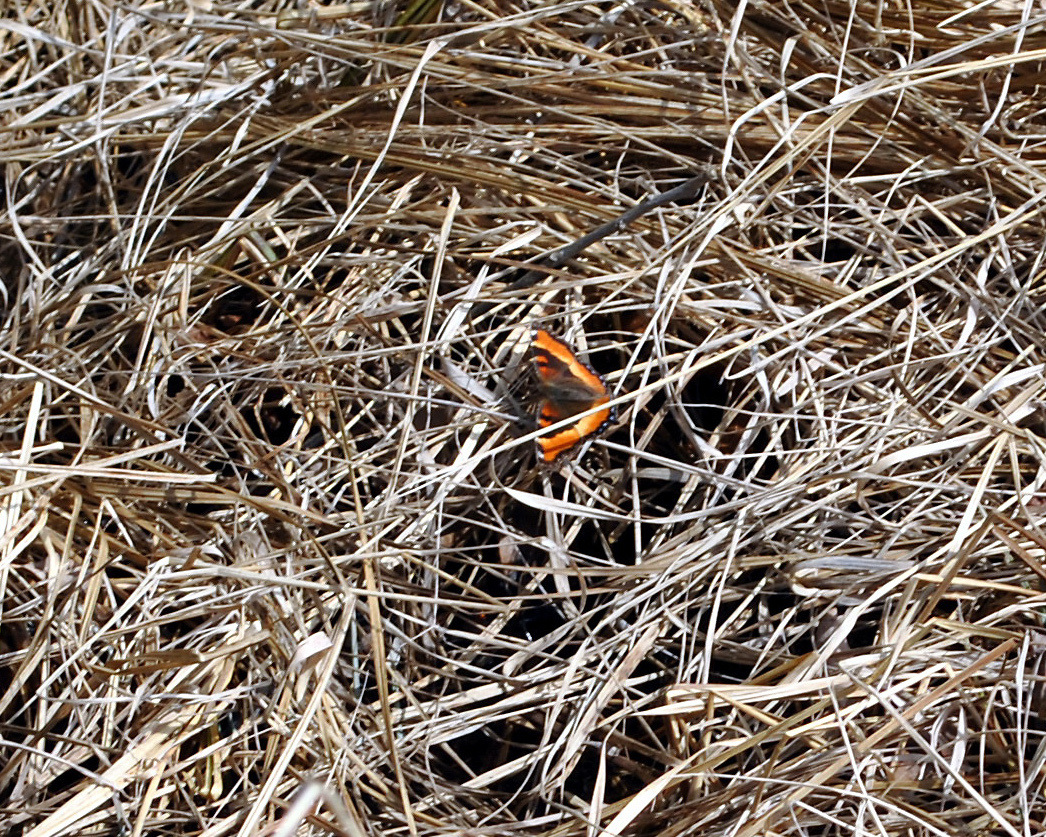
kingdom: Animalia
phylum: Arthropoda
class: Insecta
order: Lepidoptera
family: Nymphalidae
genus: Aglais
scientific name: Aglais milberti
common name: Milbert's tortoiseshell
